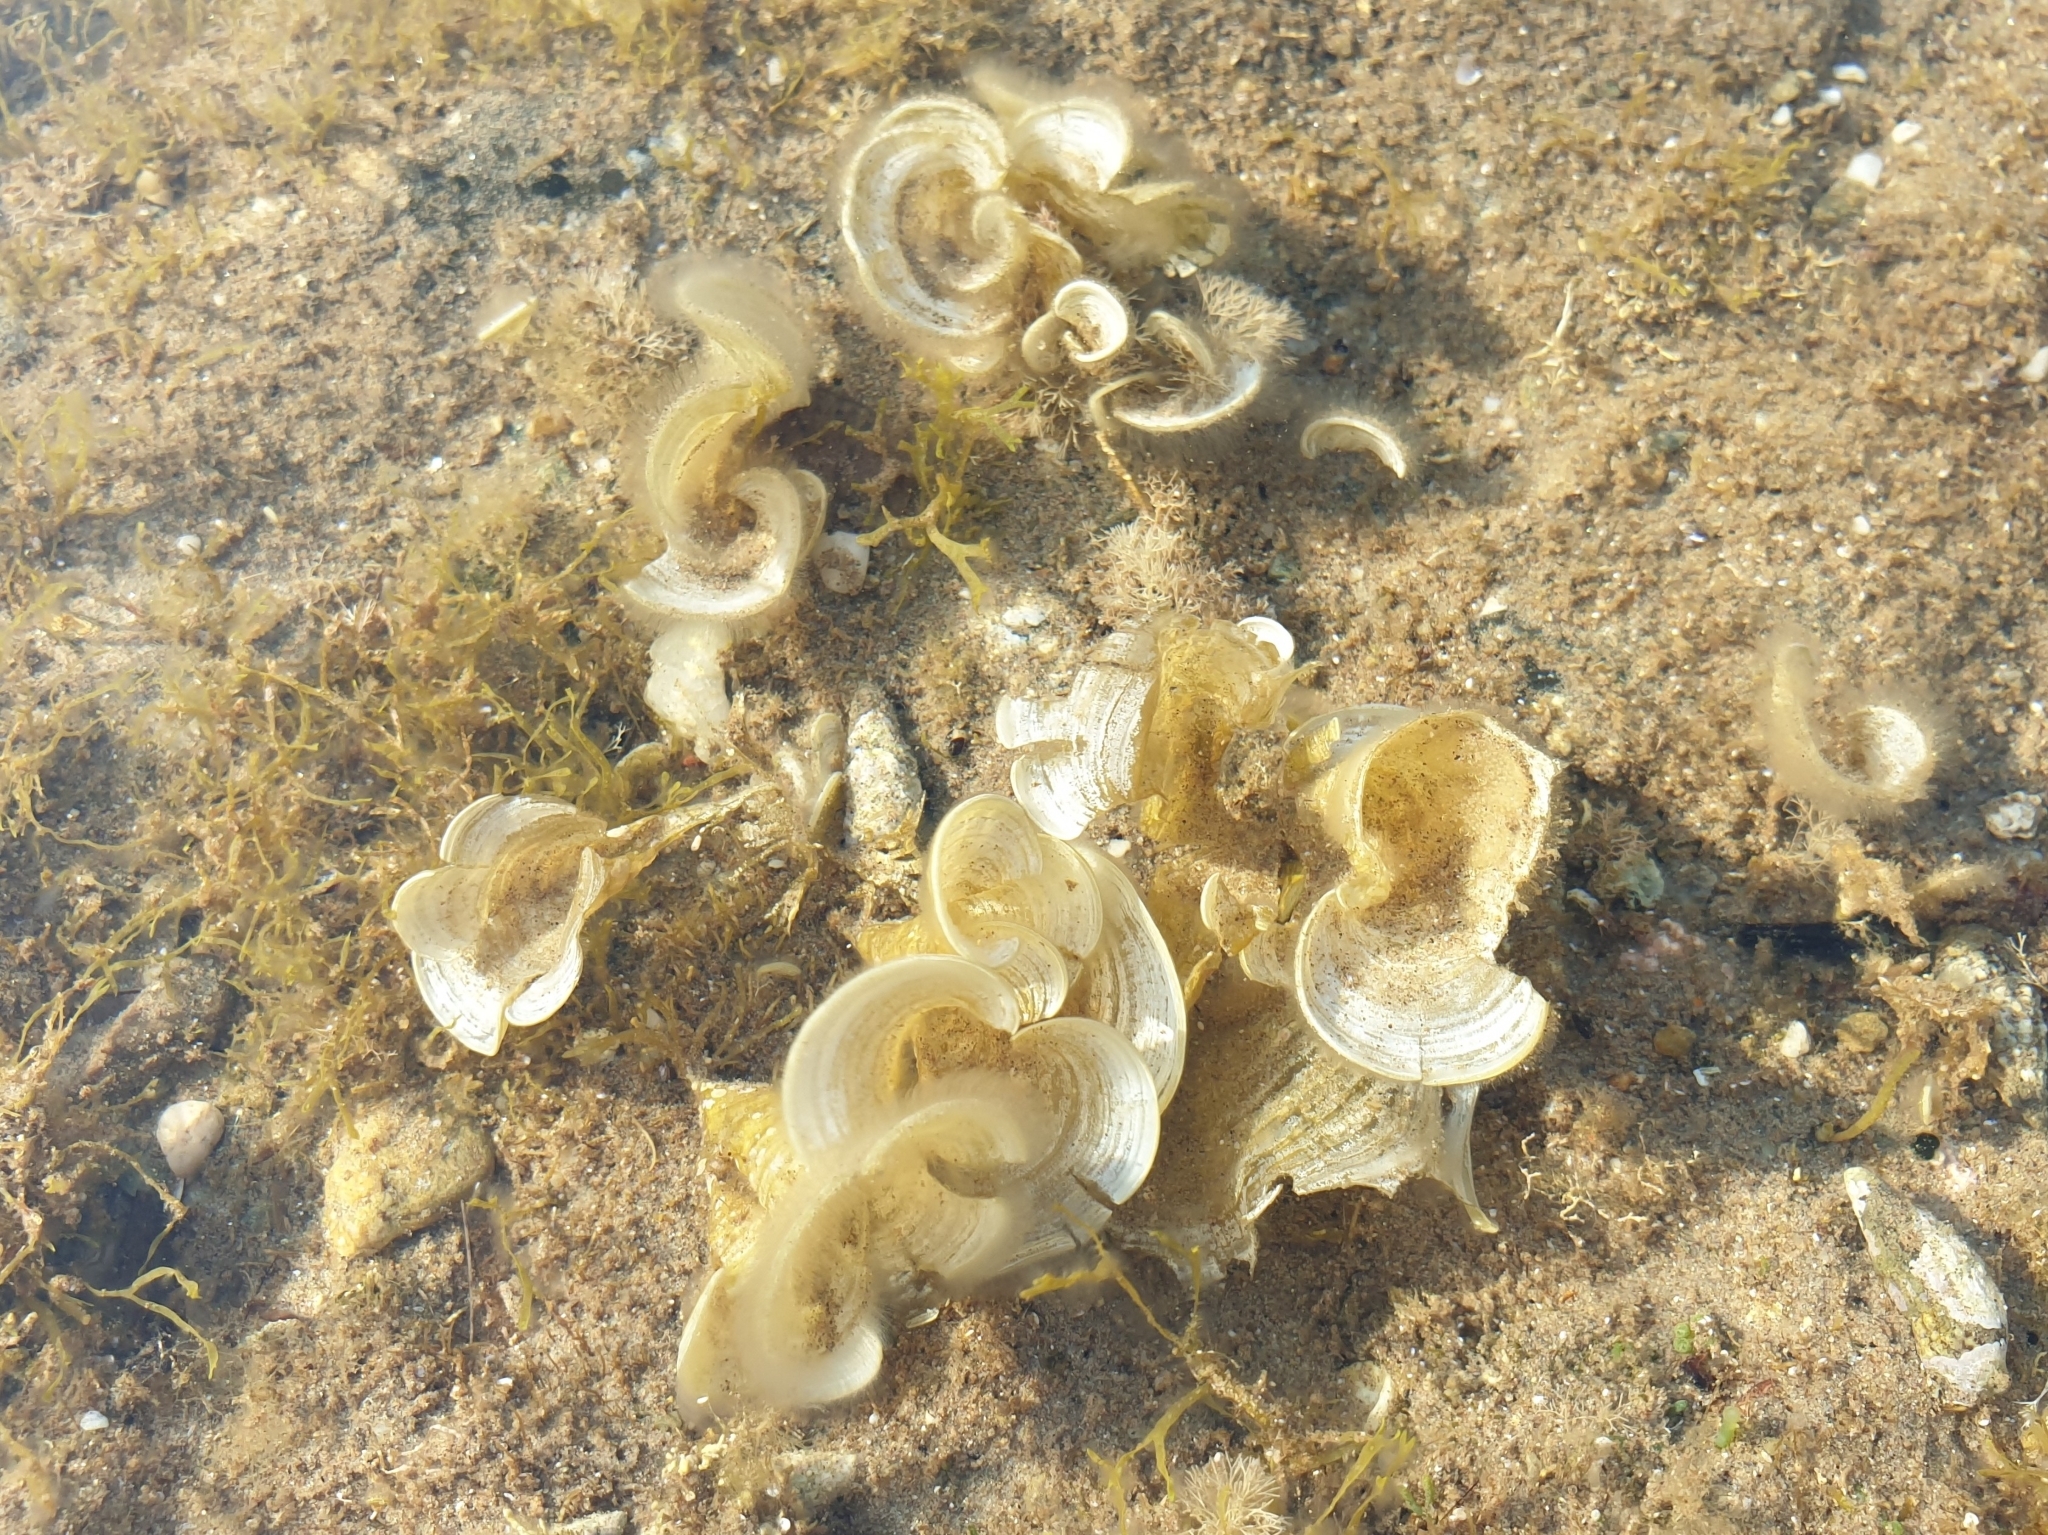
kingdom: Chromista
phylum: Ochrophyta
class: Phaeophyceae
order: Dictyotales
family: Dictyotaceae
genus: Padina
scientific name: Padina
